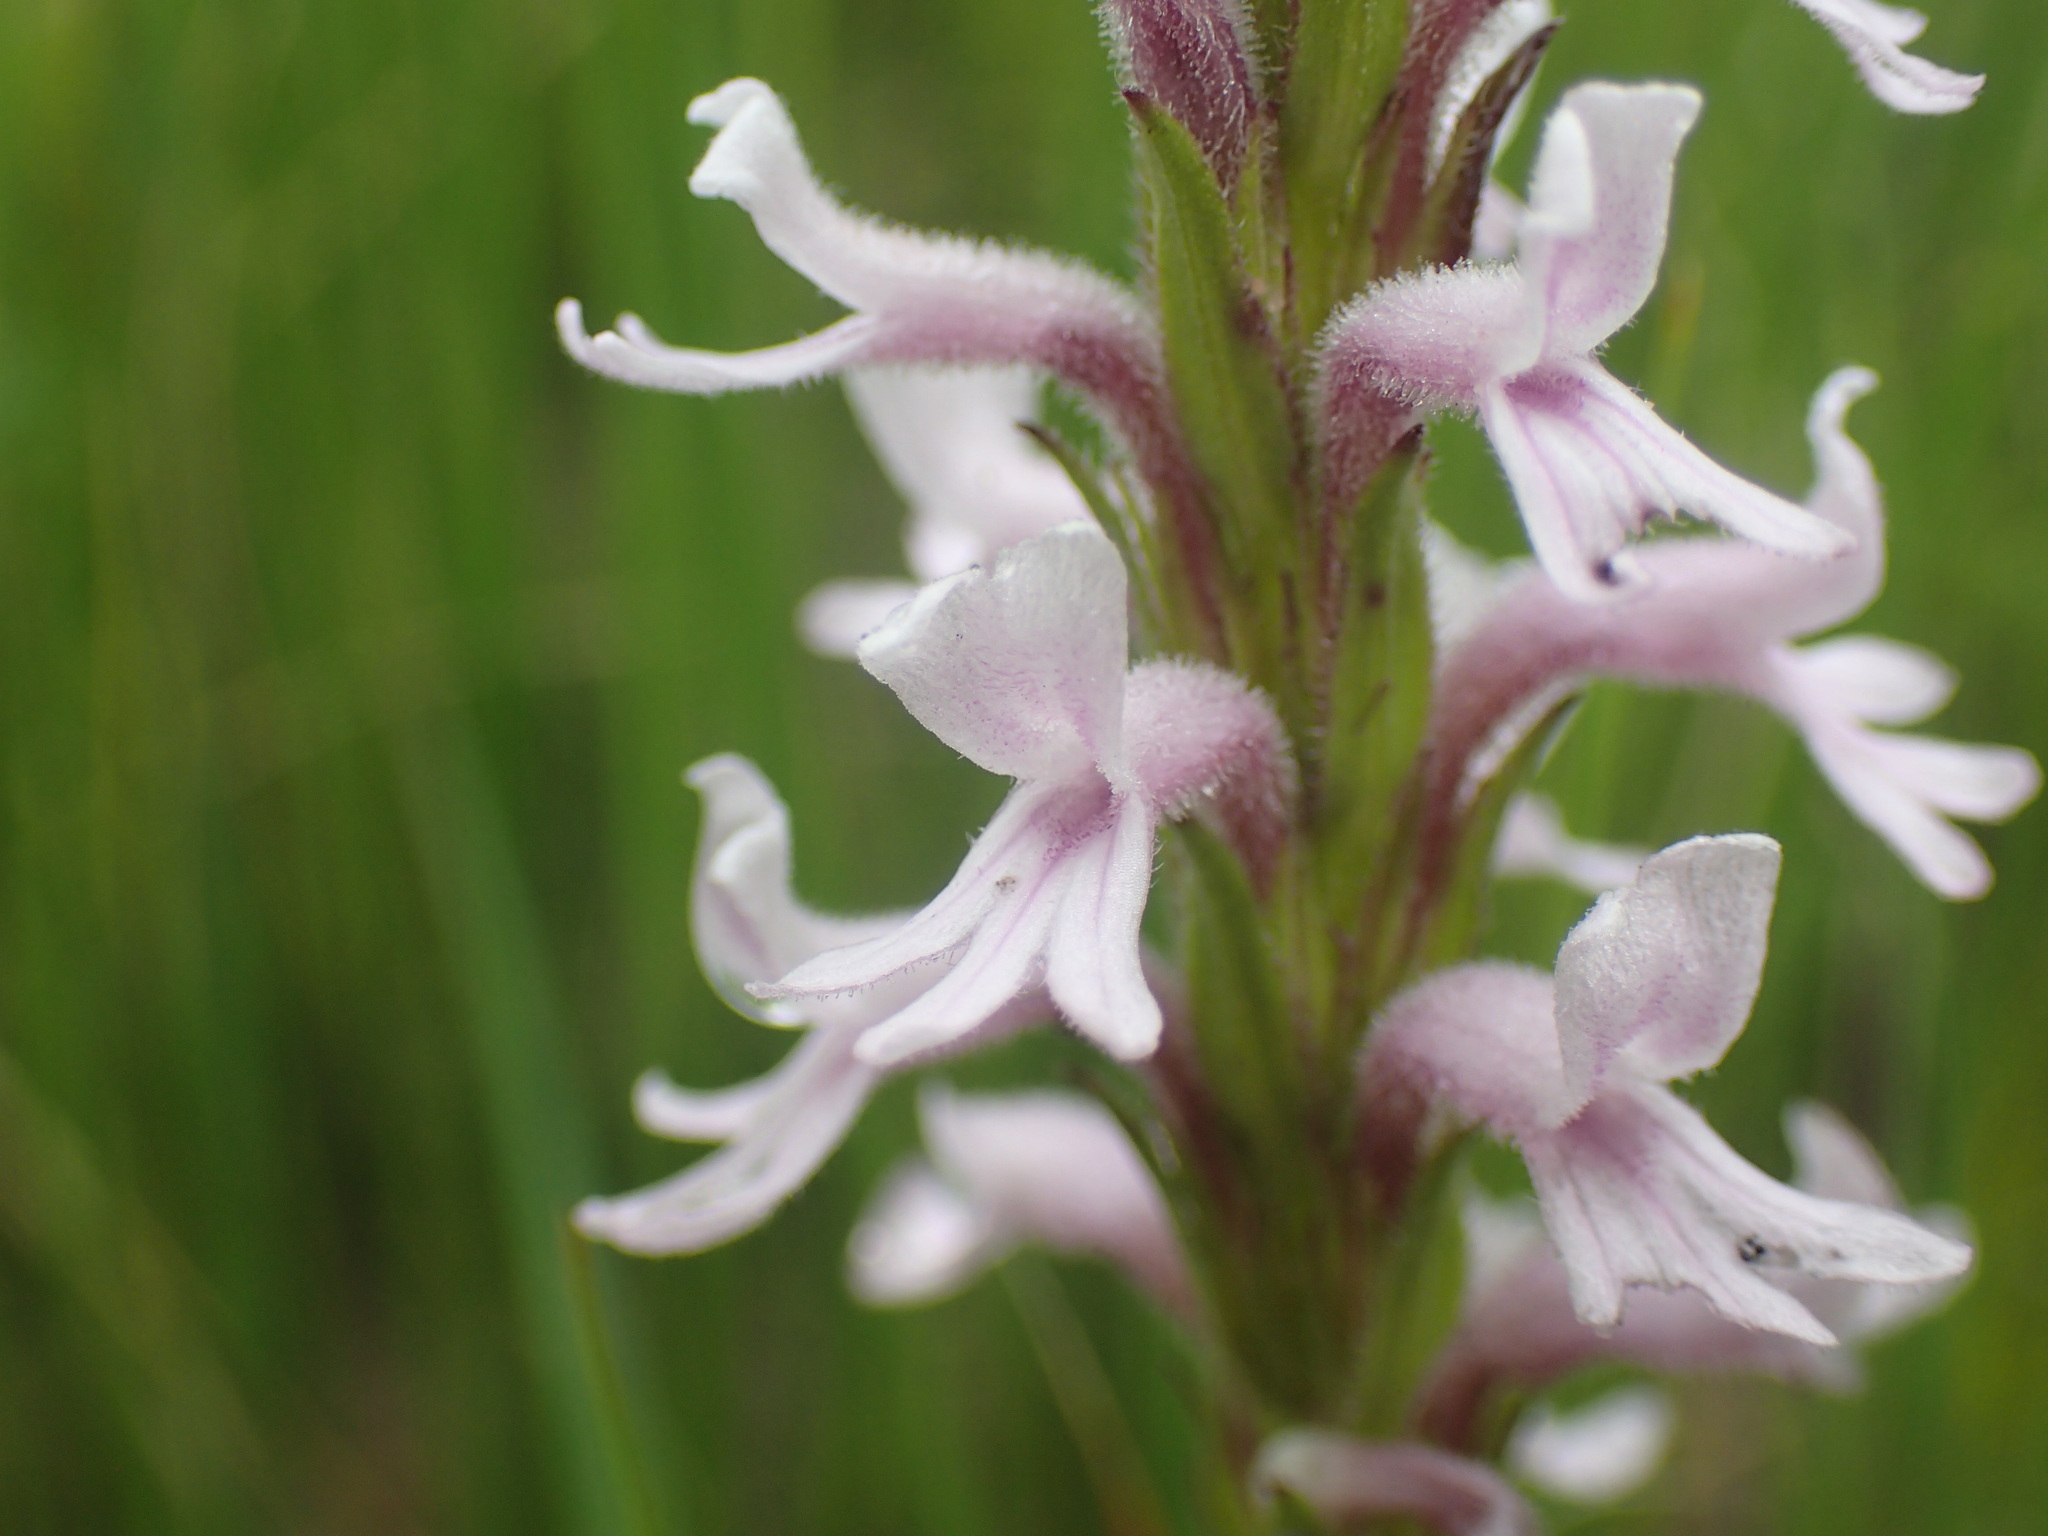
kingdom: Plantae
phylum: Tracheophyta
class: Magnoliopsida
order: Lamiales
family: Orobanchaceae
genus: Striga
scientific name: Striga bilabiata
